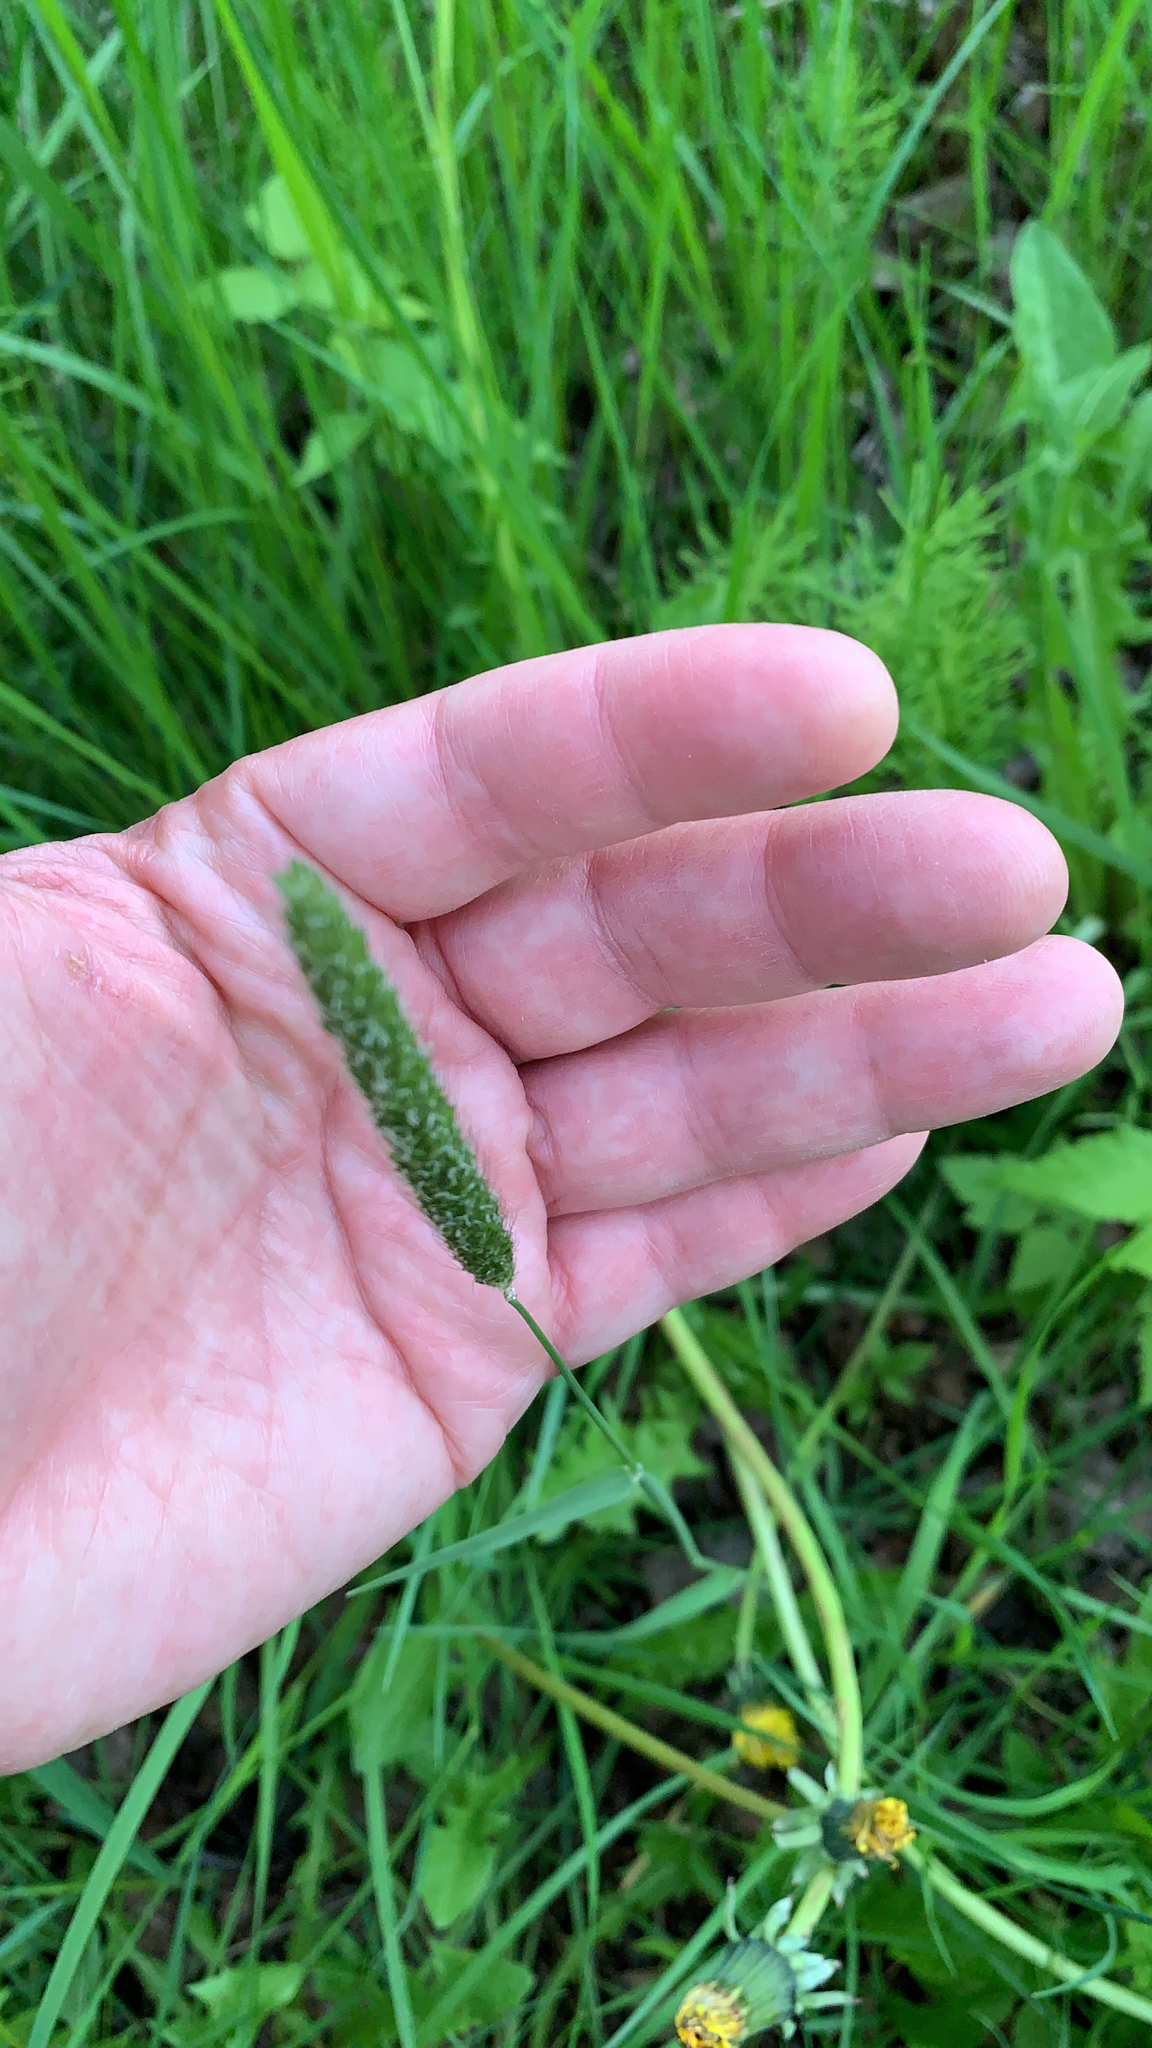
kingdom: Plantae
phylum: Tracheophyta
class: Liliopsida
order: Poales
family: Poaceae
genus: Phleum
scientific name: Phleum pratense
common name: Timothy grass
